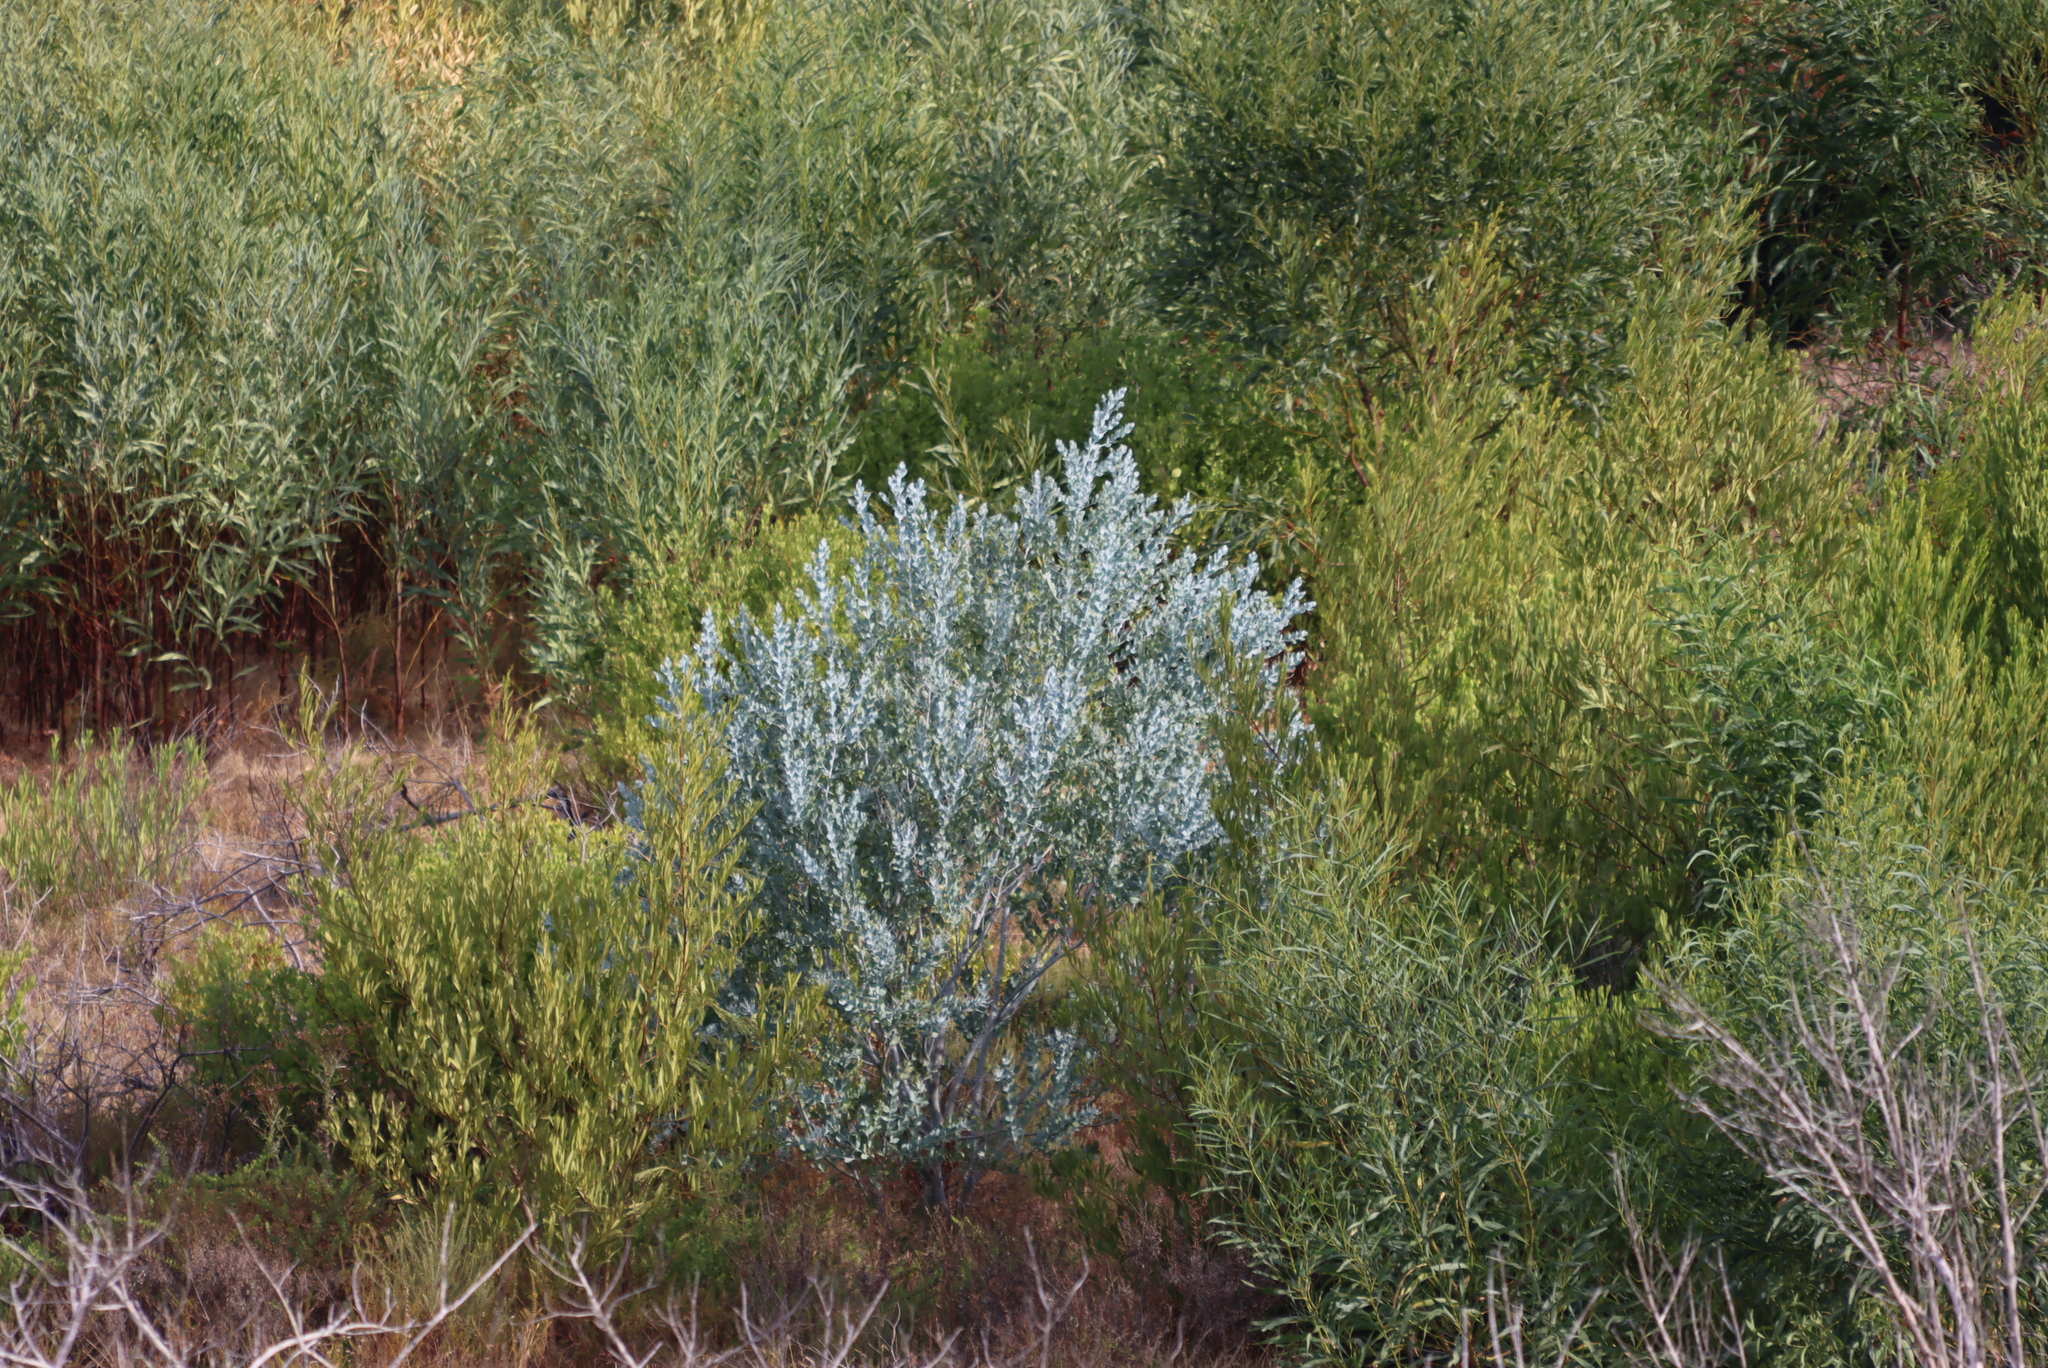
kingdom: Plantae
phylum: Tracheophyta
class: Magnoliopsida
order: Fabales
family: Fabaceae
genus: Acacia
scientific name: Acacia podalyriifolia
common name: Pearl wattle
